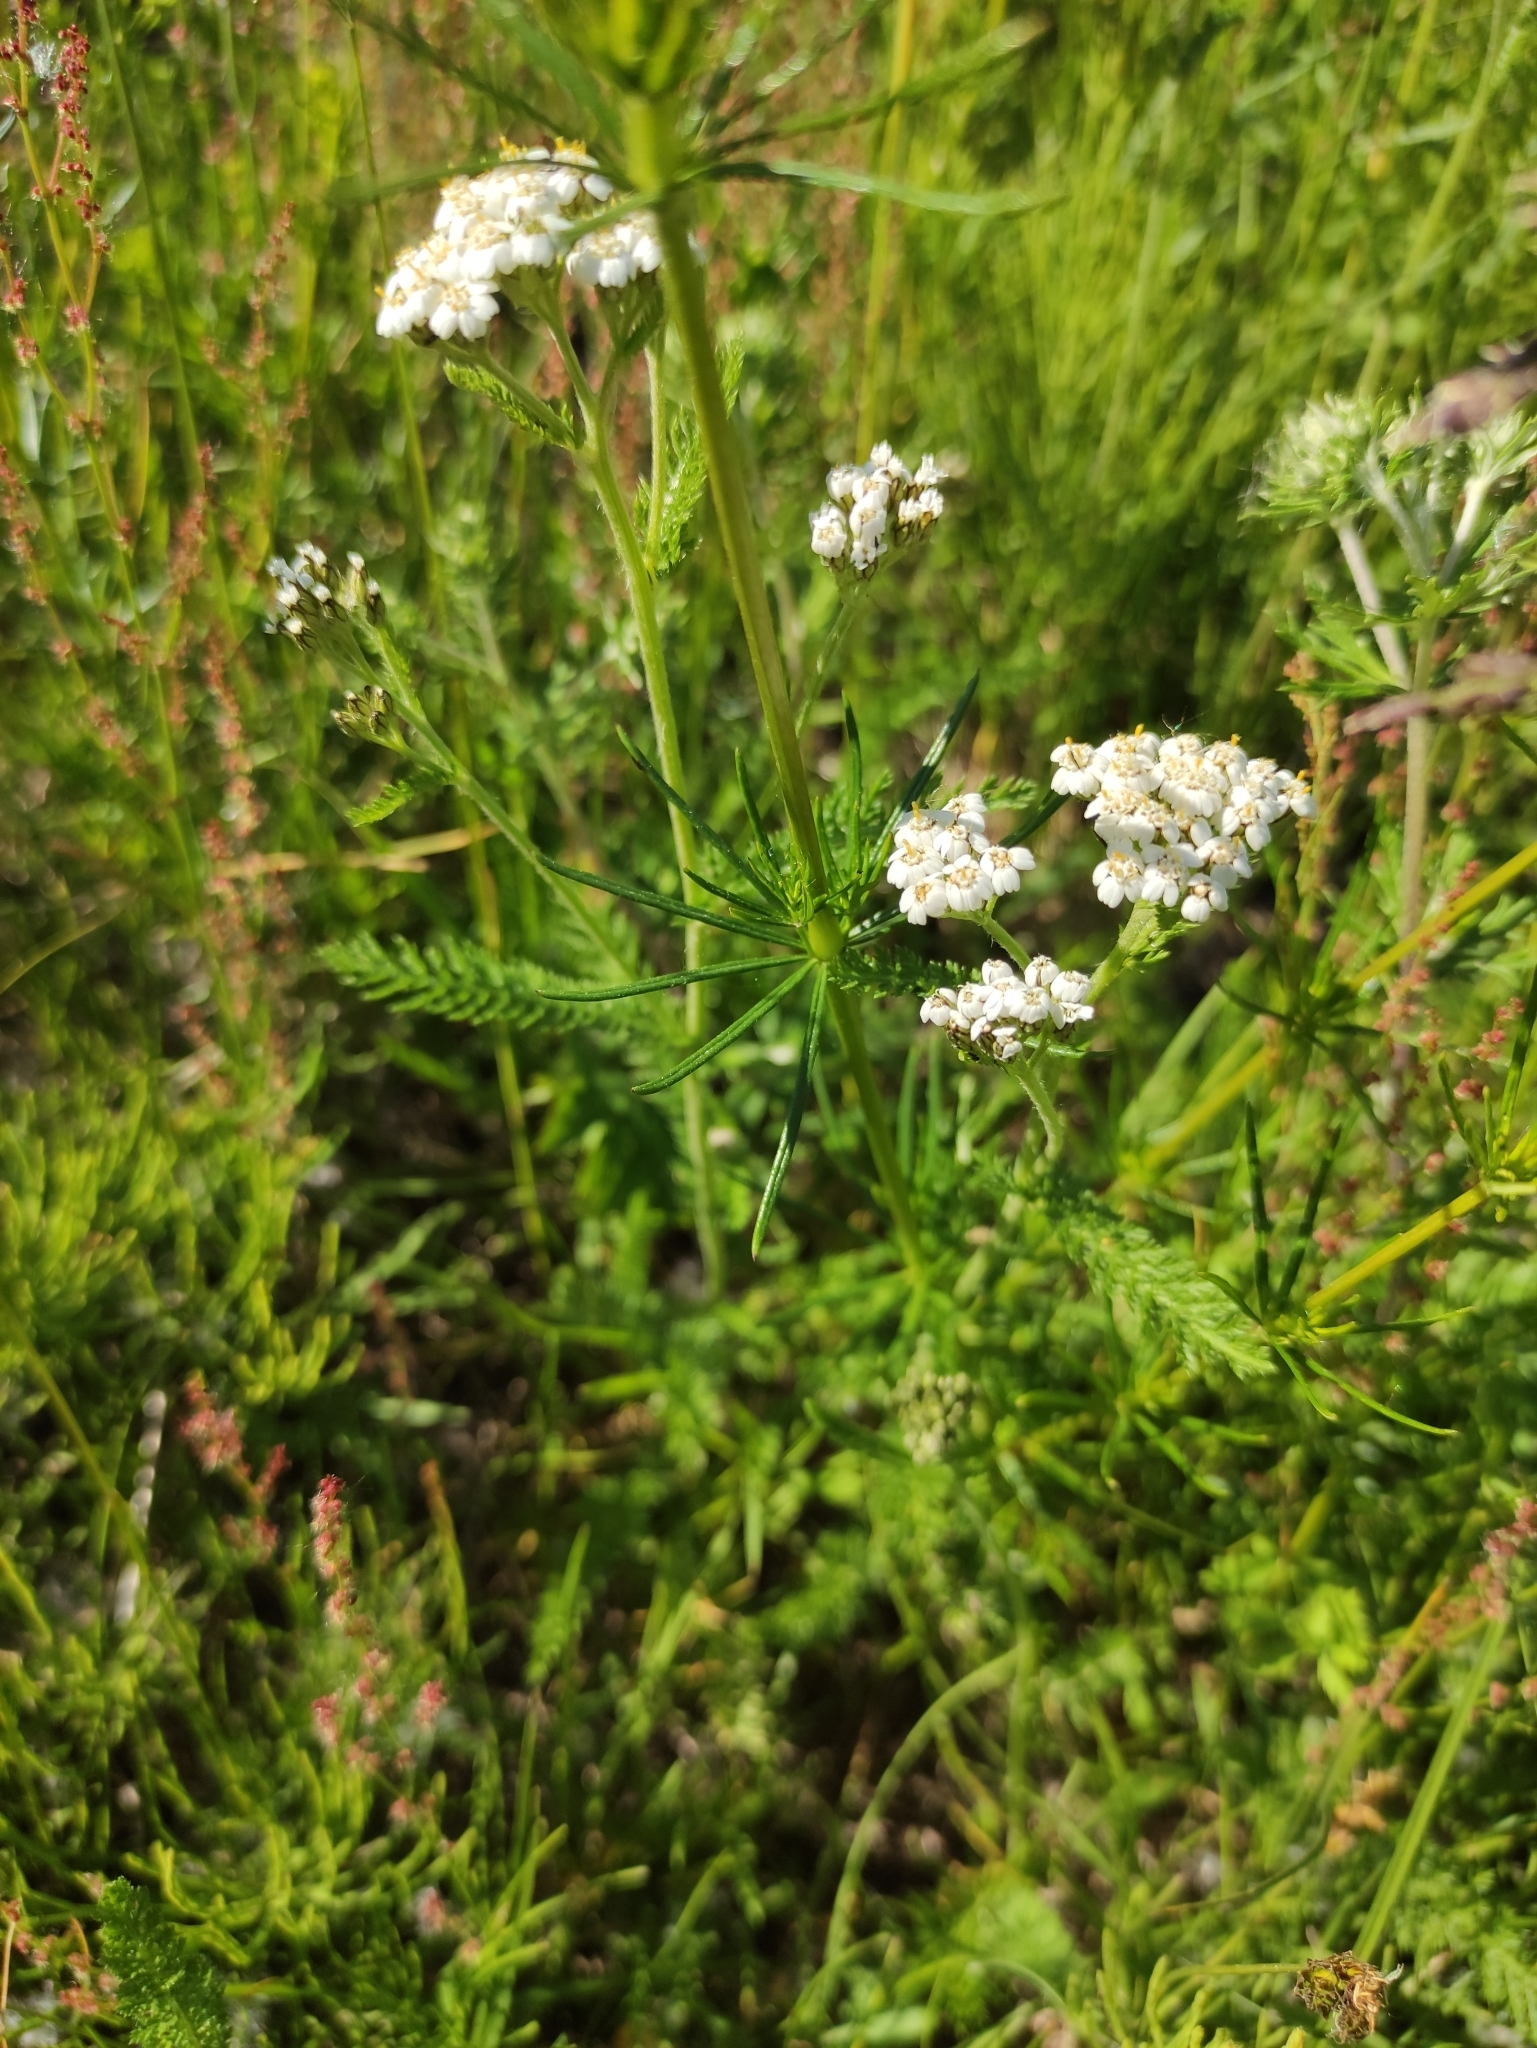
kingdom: Plantae
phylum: Tracheophyta
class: Magnoliopsida
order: Asterales
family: Asteraceae
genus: Achillea
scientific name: Achillea millefolium
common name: Yarrow
